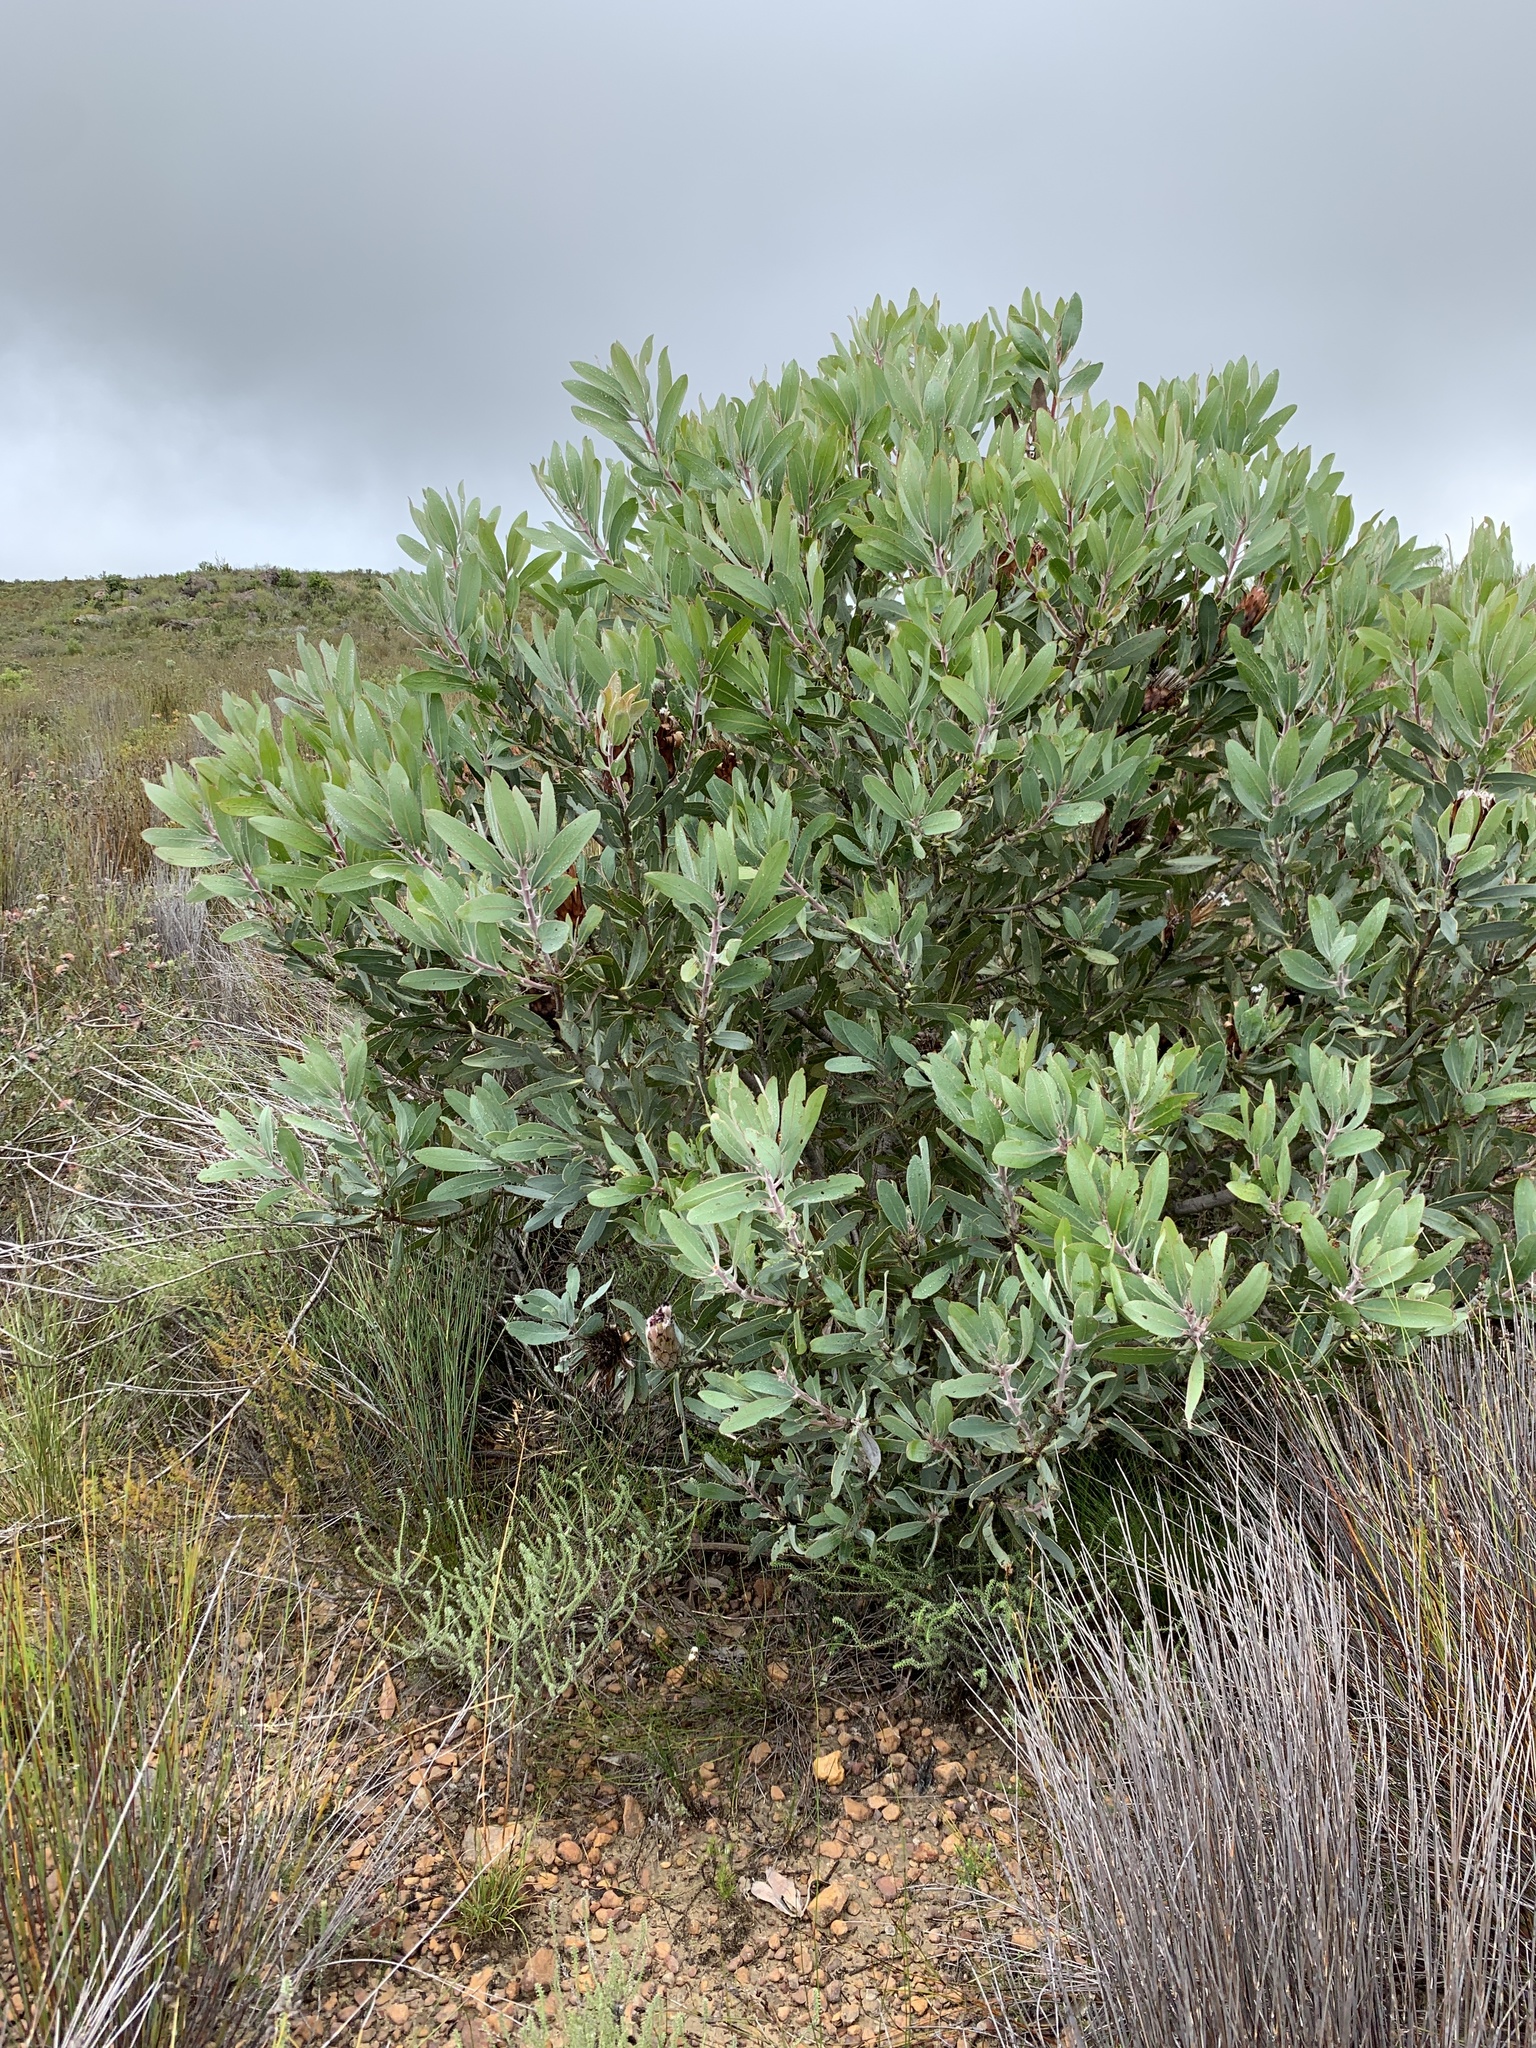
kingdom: Plantae
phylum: Tracheophyta
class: Magnoliopsida
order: Proteales
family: Proteaceae
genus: Protea
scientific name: Protea laurifolia
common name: Grey-leaf sugarbsh
